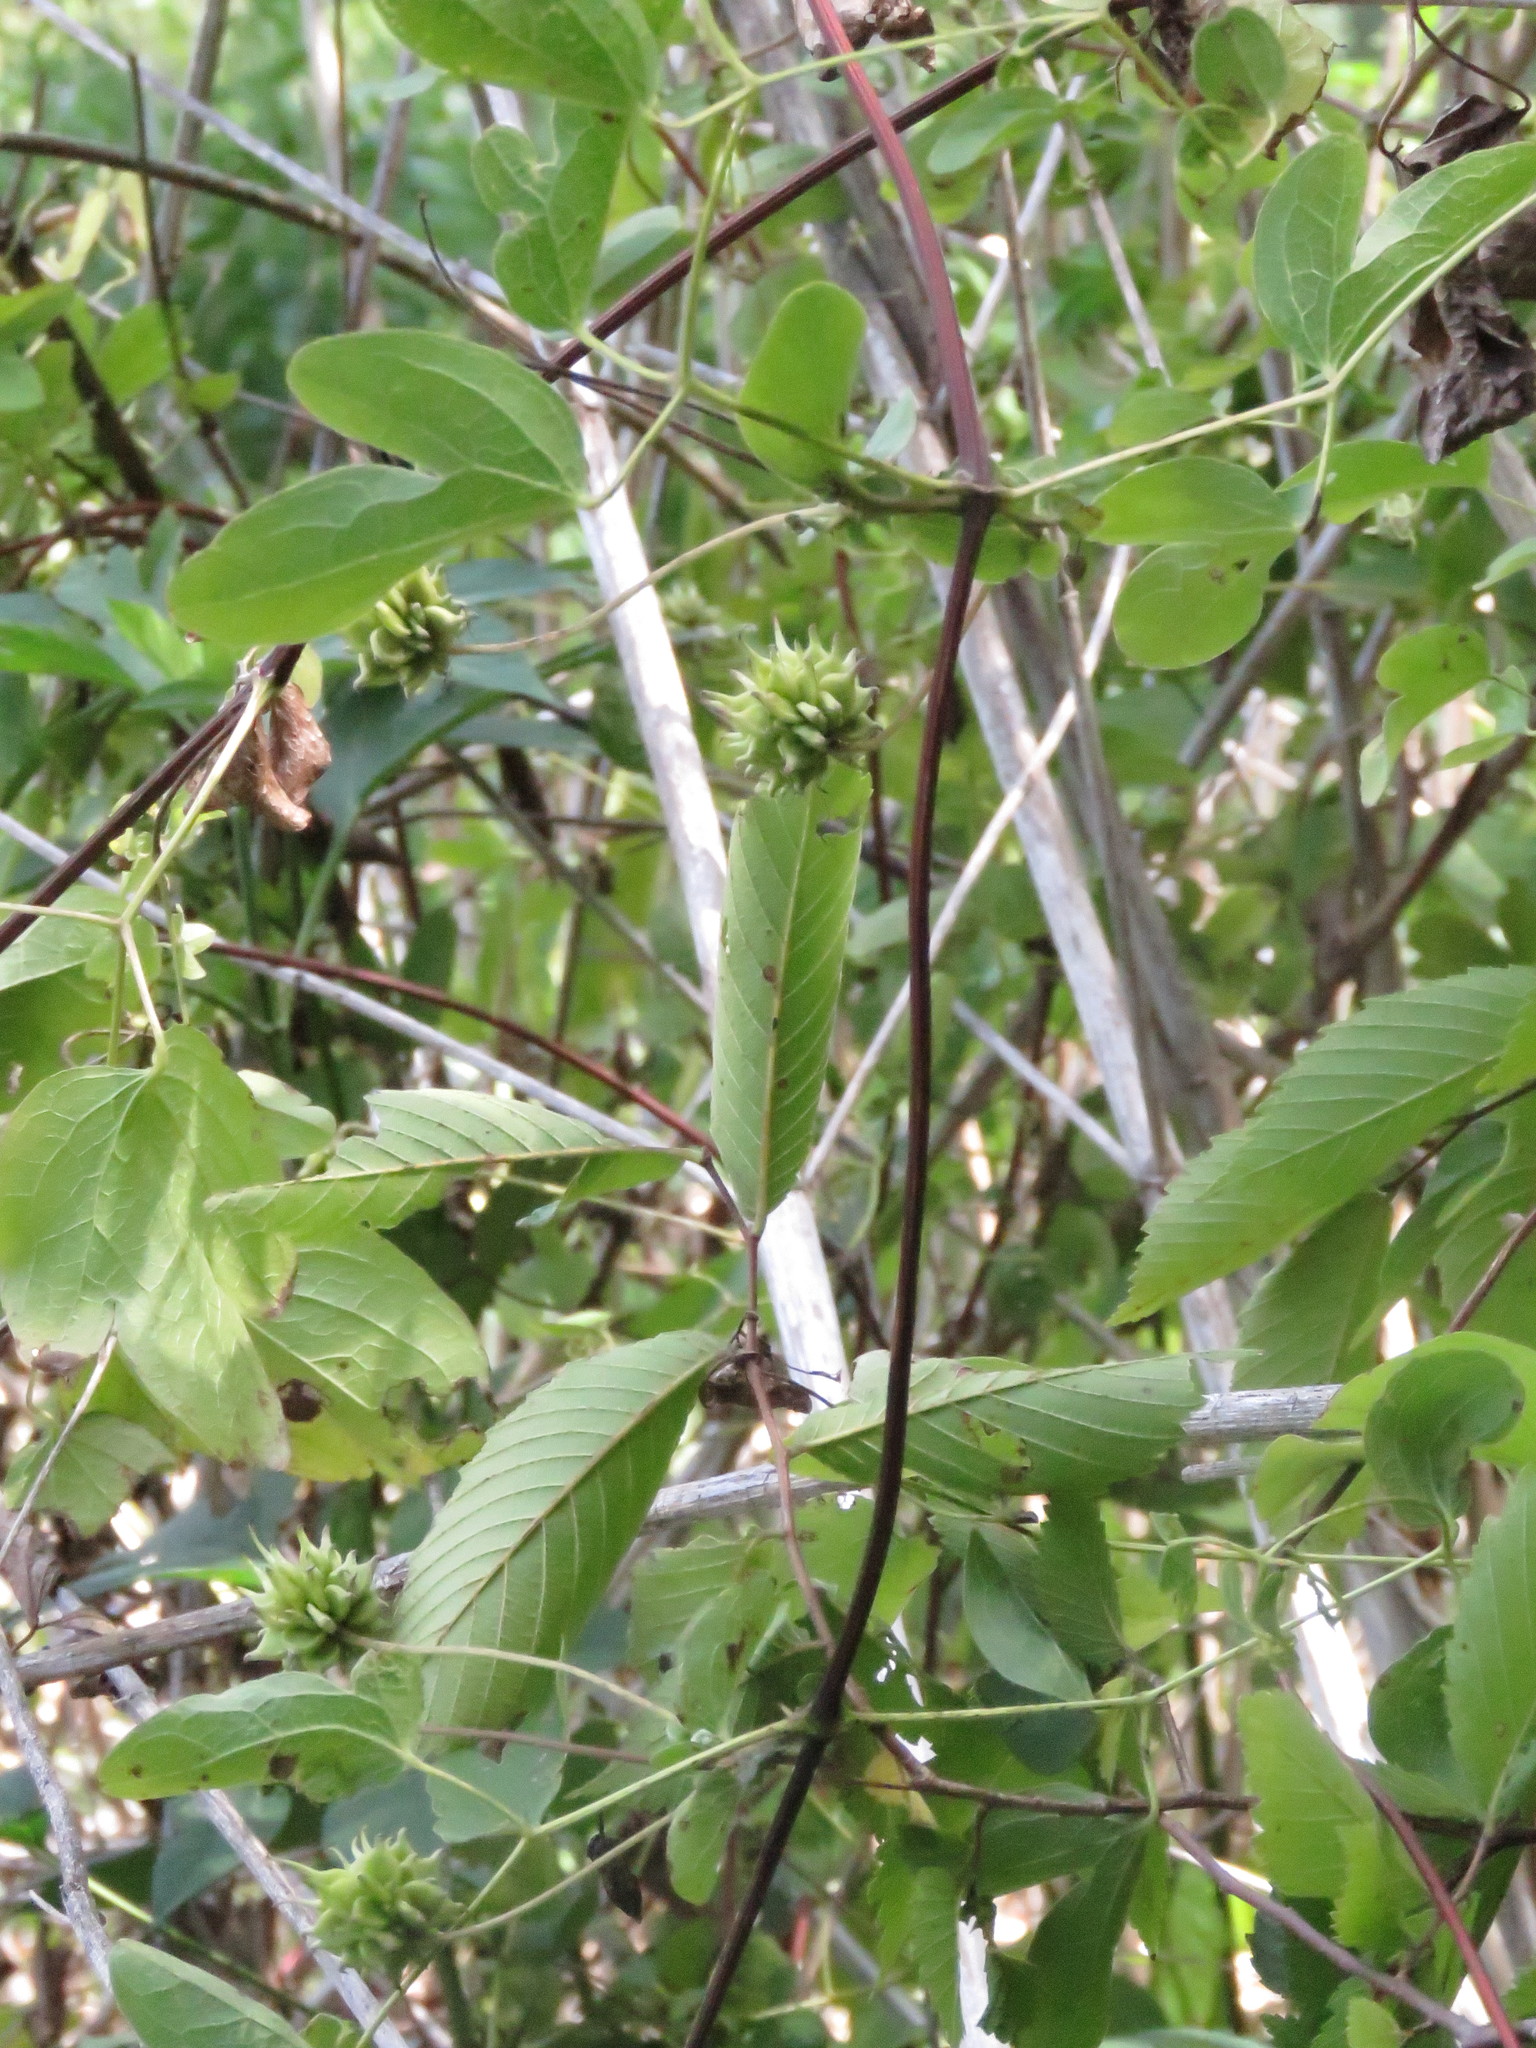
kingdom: Plantae
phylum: Tracheophyta
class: Magnoliopsida
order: Ranunculales
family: Ranunculaceae
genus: Clematis
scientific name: Clematis pitcheri
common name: Bellflower clematis
